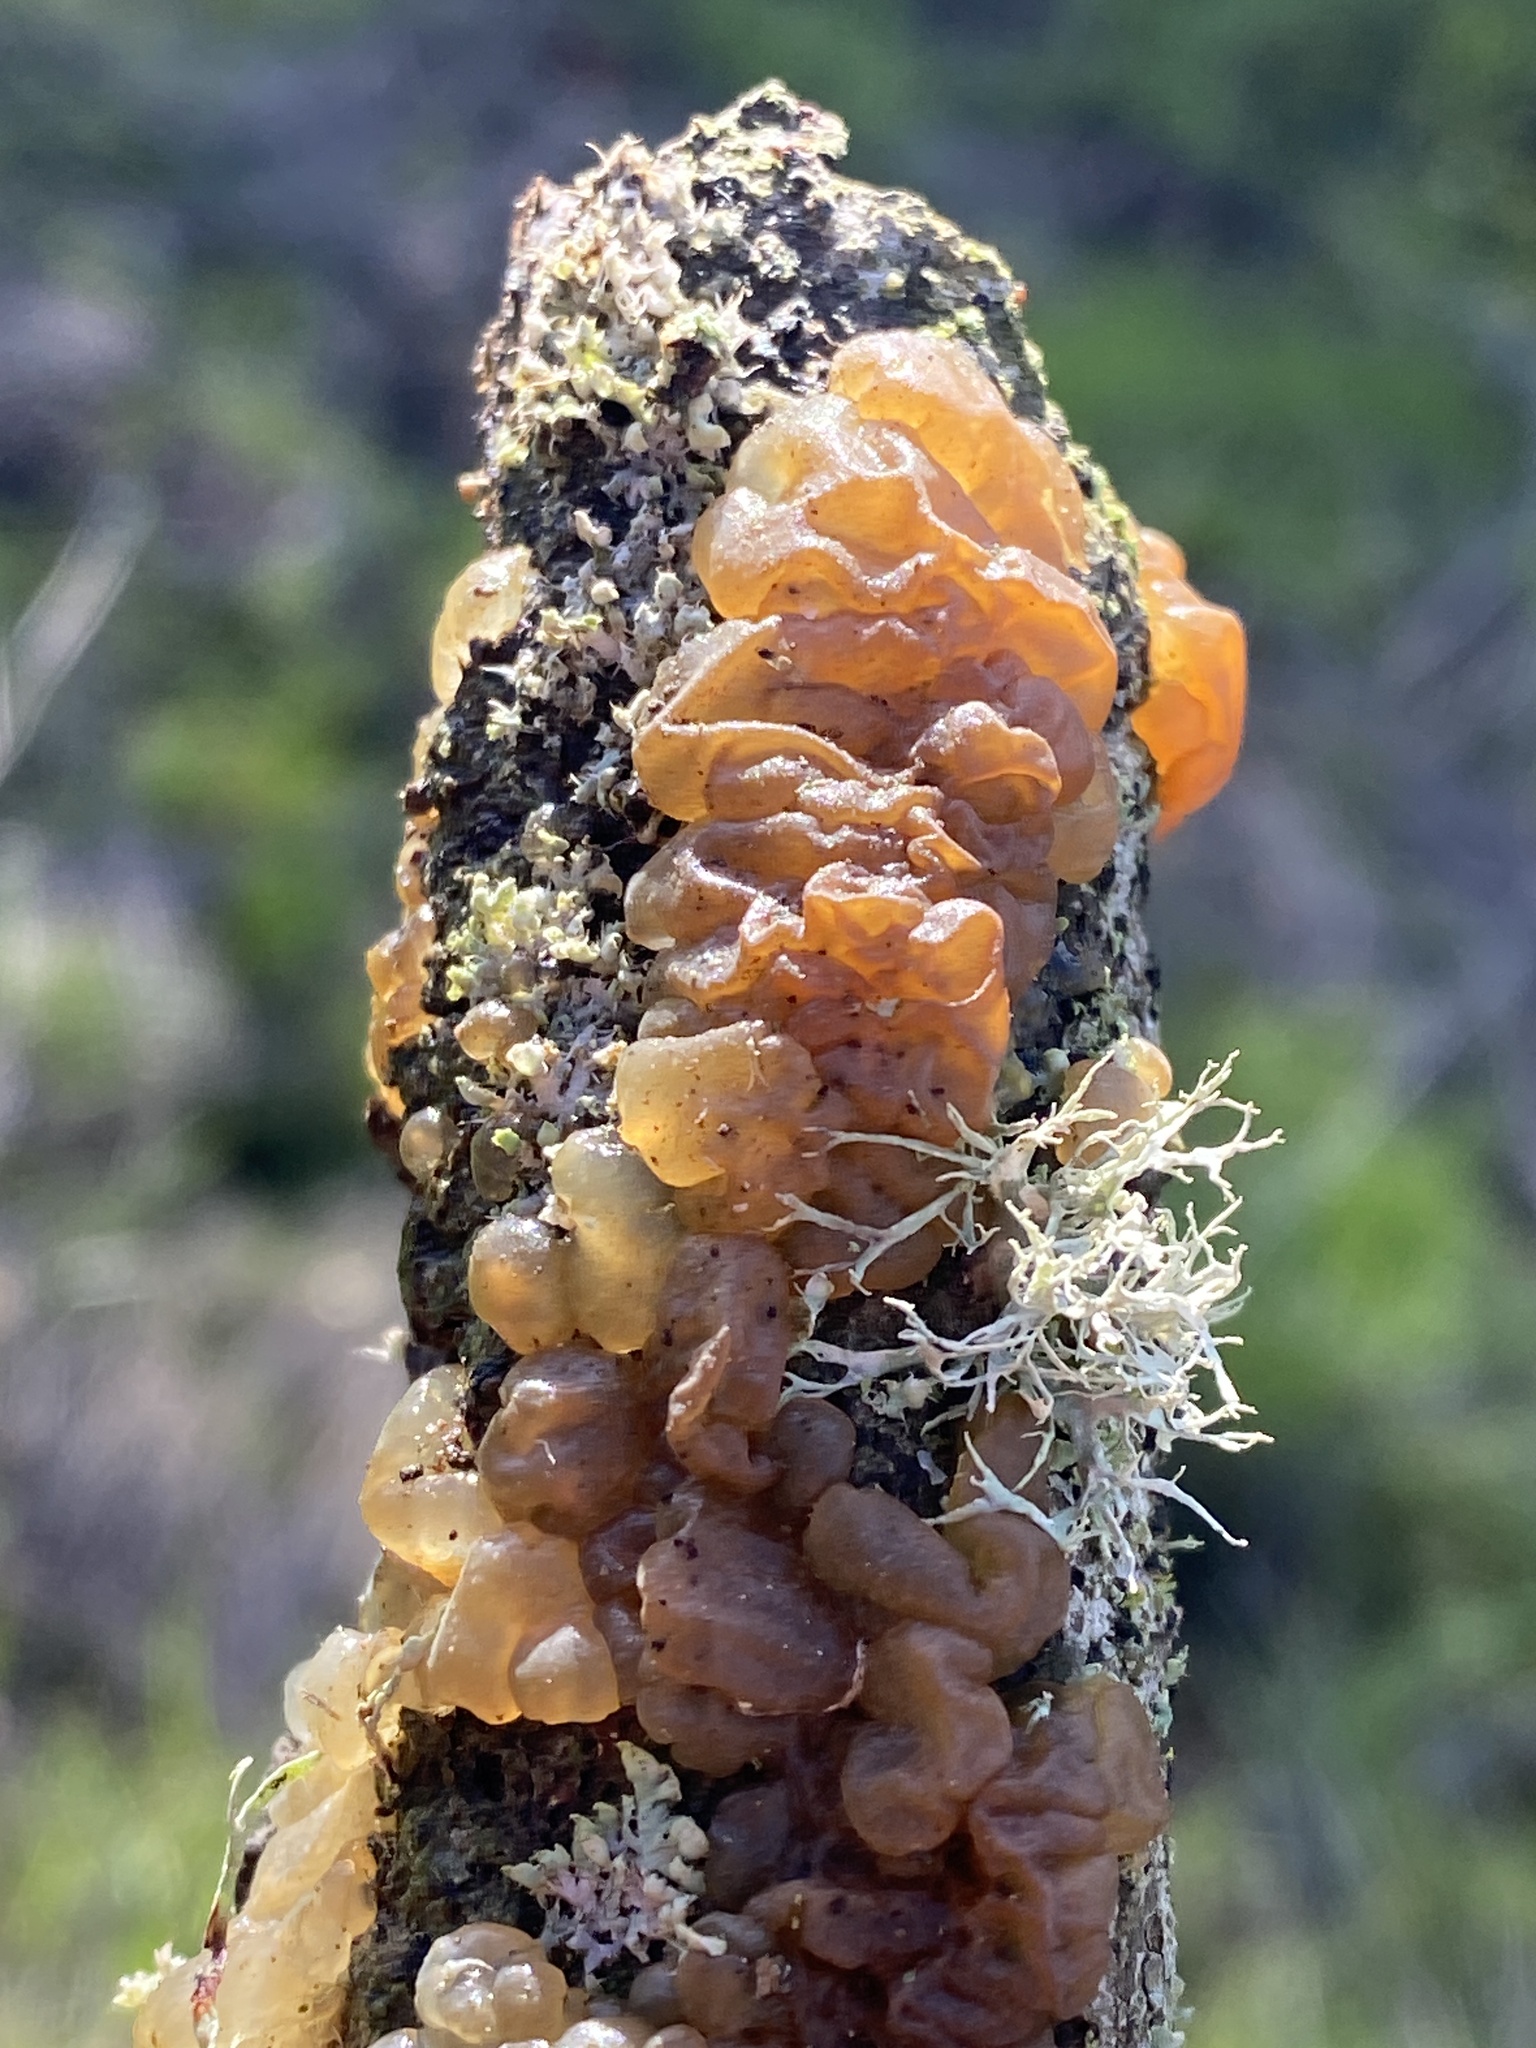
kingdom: Fungi
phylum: Basidiomycota
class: Agaricomycetes
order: Auriculariales
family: Hyaloriaceae
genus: Myxarium
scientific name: Myxarium nucleatum
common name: Crystal brain fungus
